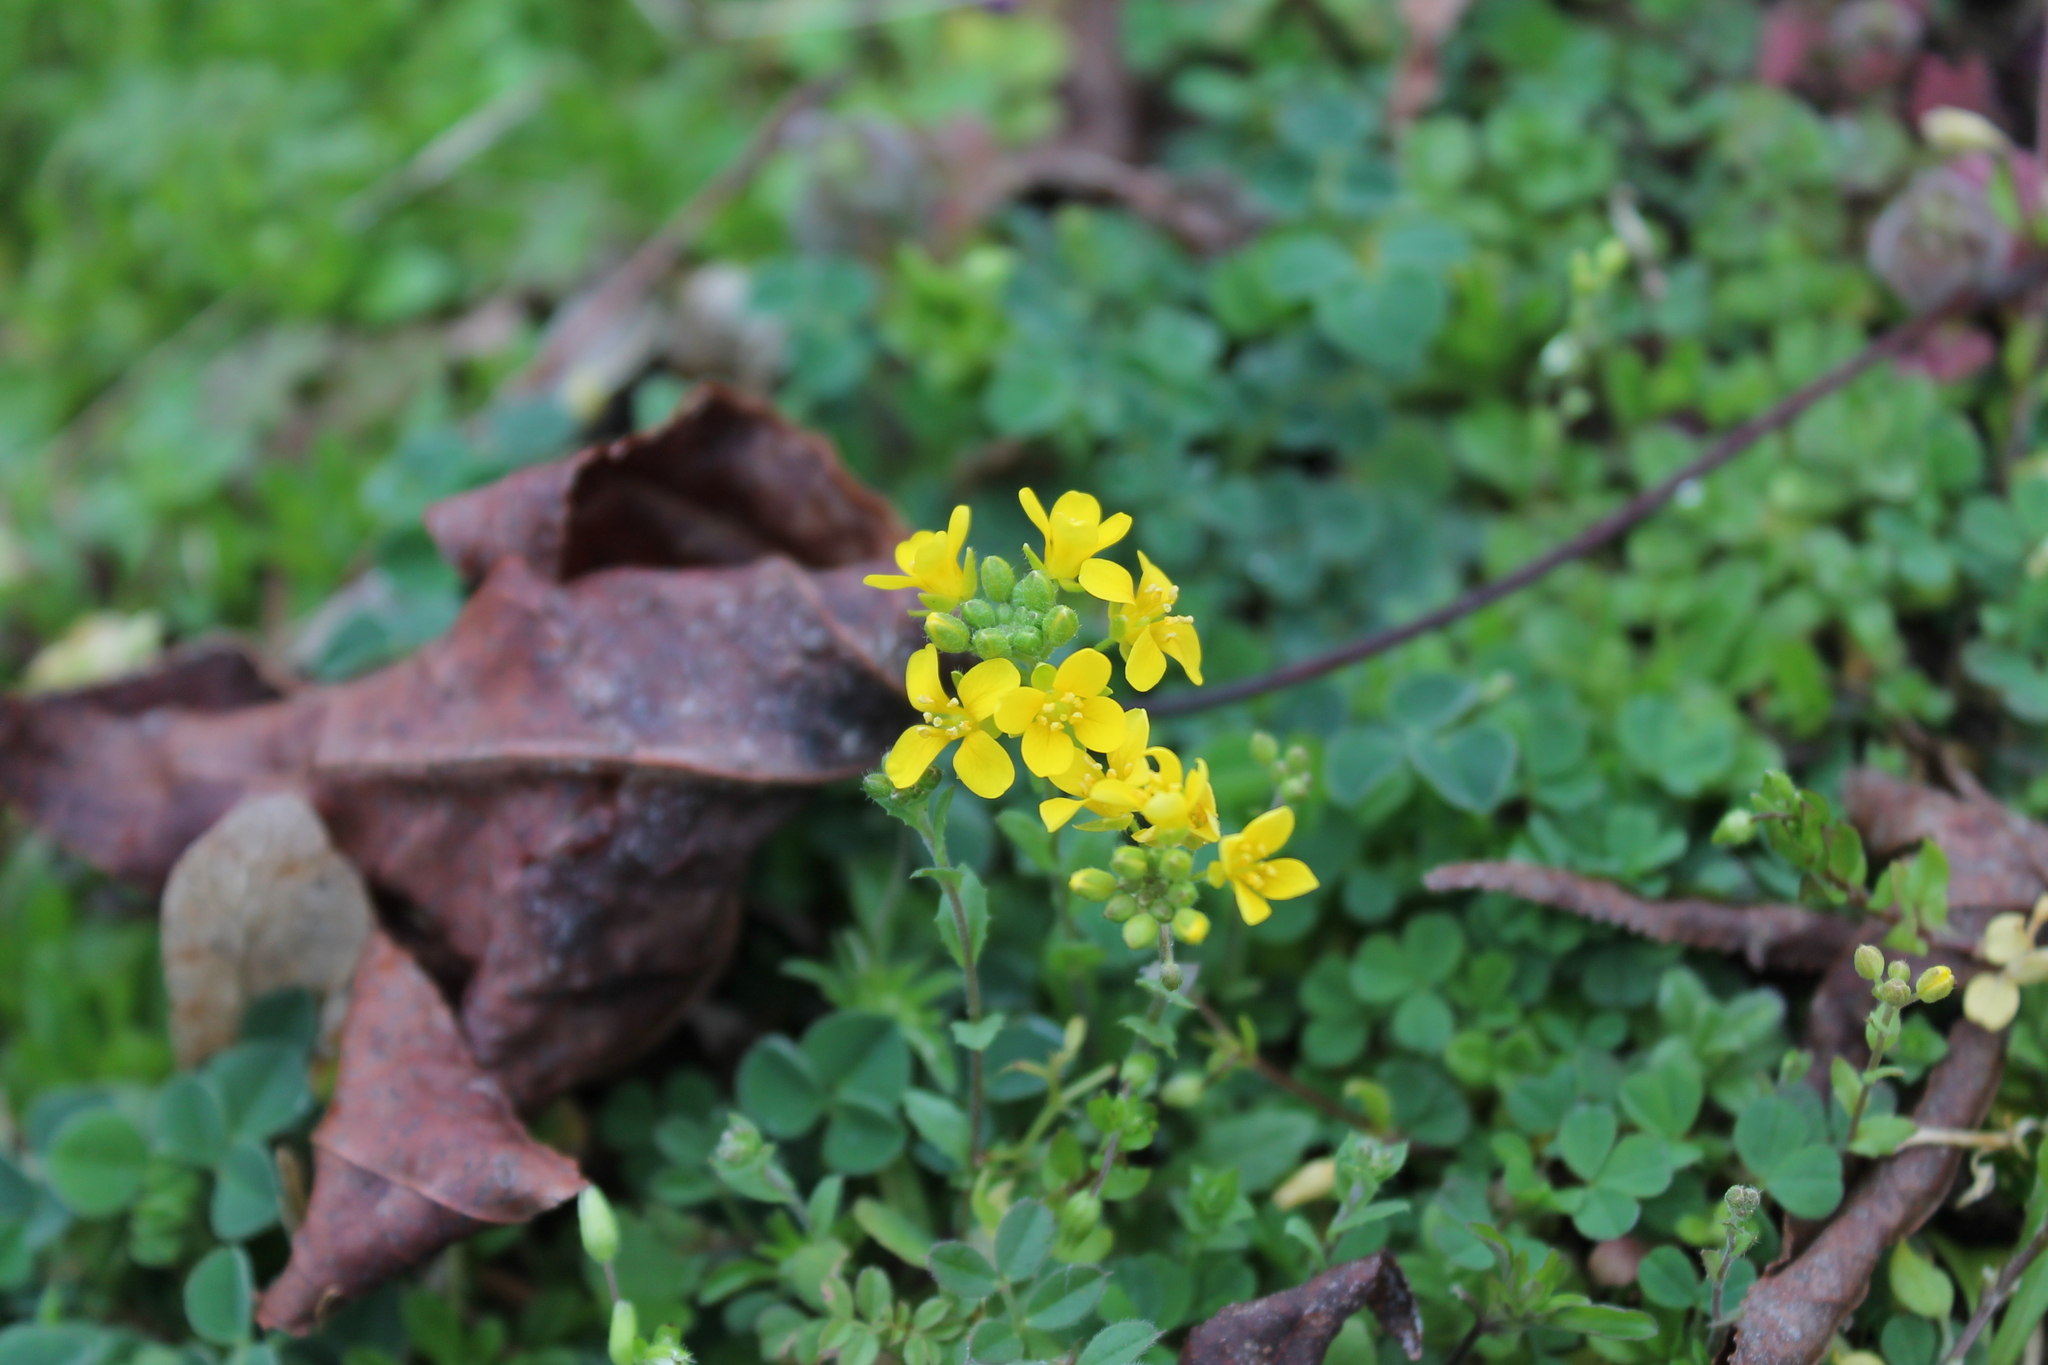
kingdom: Plantae
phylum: Tracheophyta
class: Magnoliopsida
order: Brassicales
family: Brassicaceae
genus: Paysonia
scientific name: Paysonia lescurii
